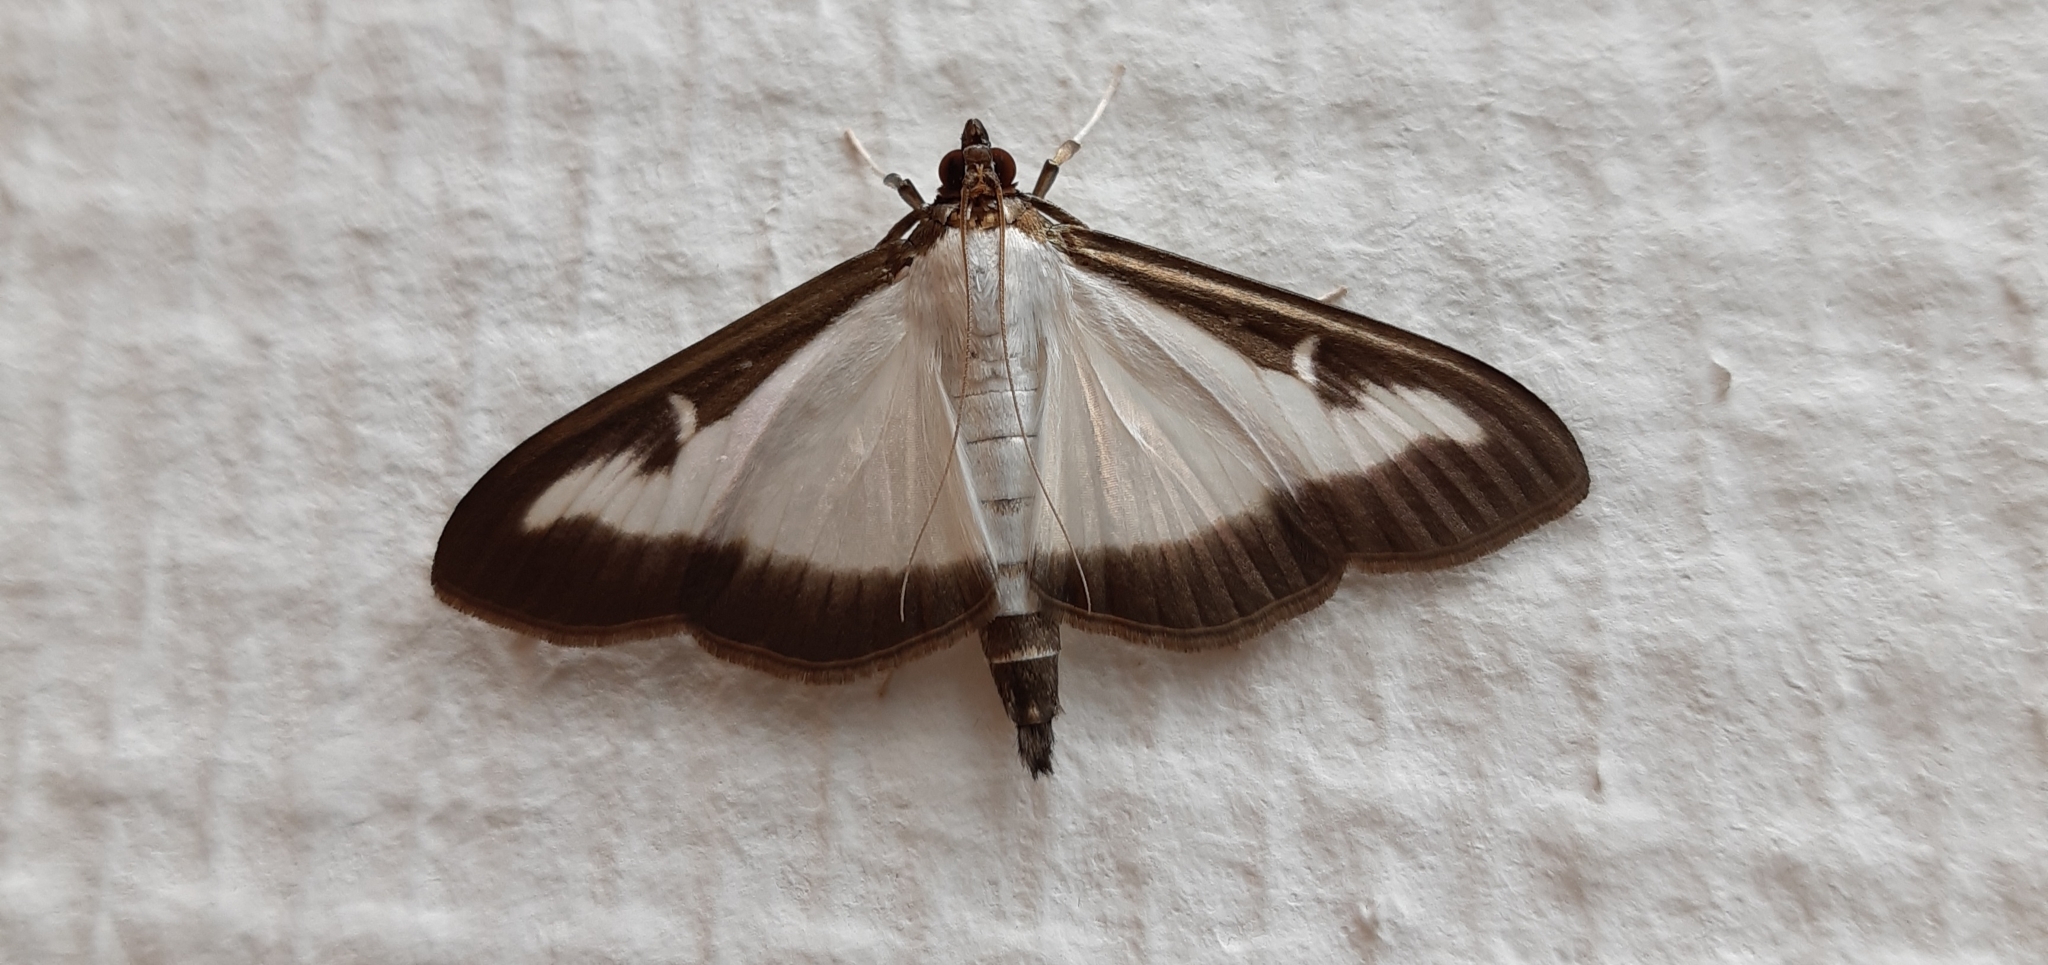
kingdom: Animalia
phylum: Arthropoda
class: Insecta
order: Lepidoptera
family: Crambidae
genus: Cydalima
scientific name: Cydalima perspectalis
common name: Box tree moth
